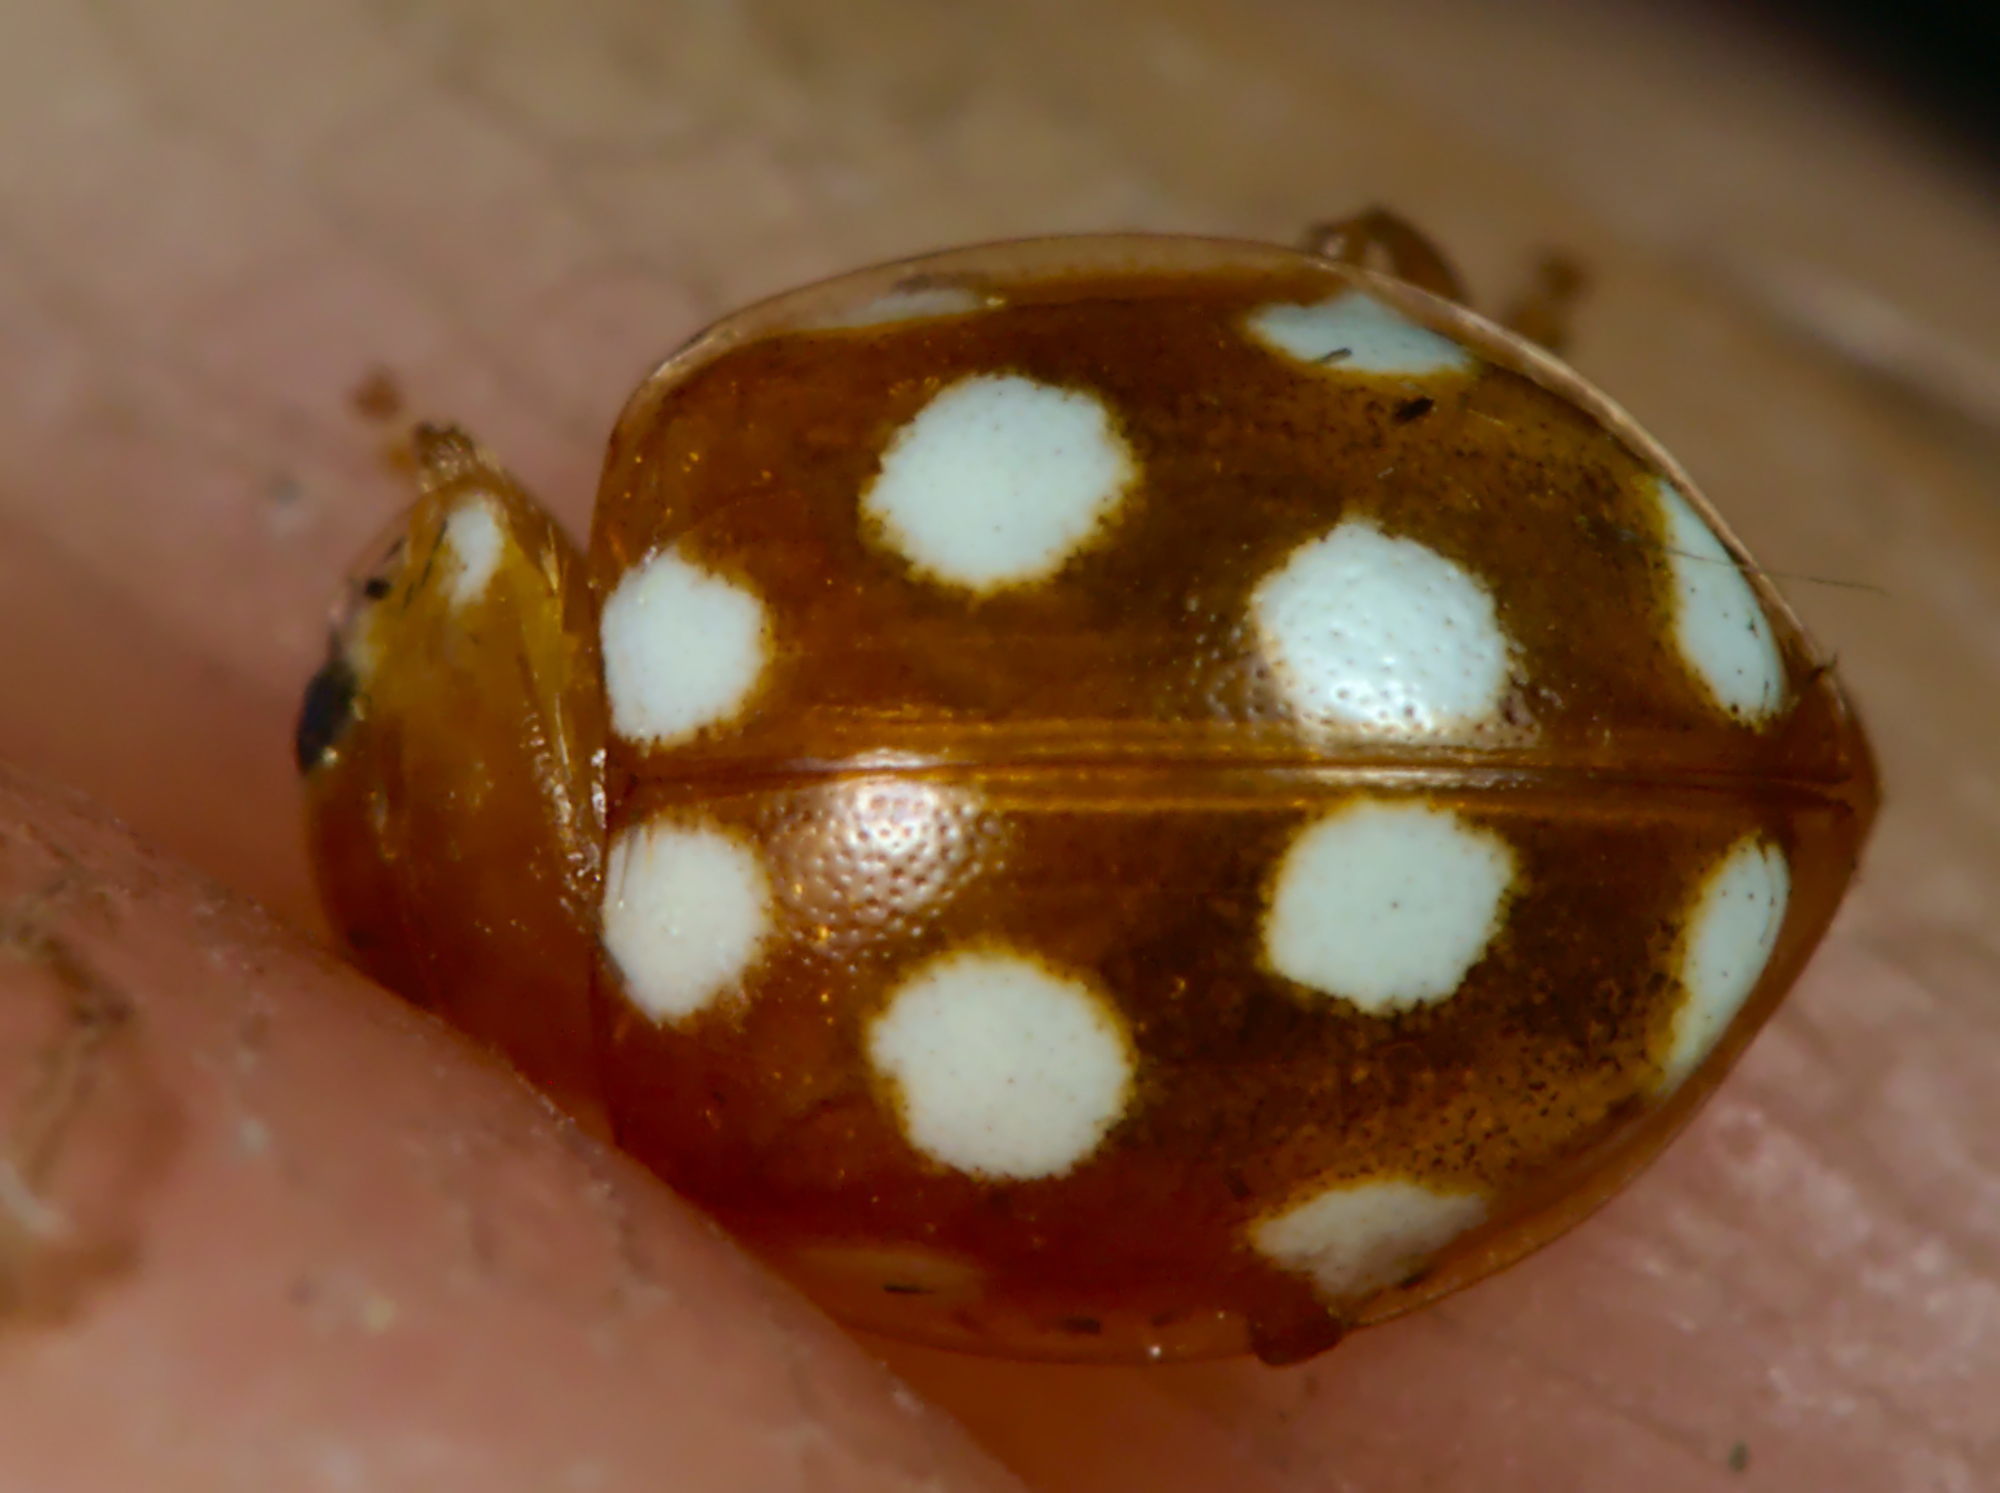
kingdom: Animalia
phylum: Arthropoda
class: Insecta
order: Coleoptera
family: Coccinellidae
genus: Vibidia
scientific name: Vibidia duodecimguttata
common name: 12-spot ladybird
